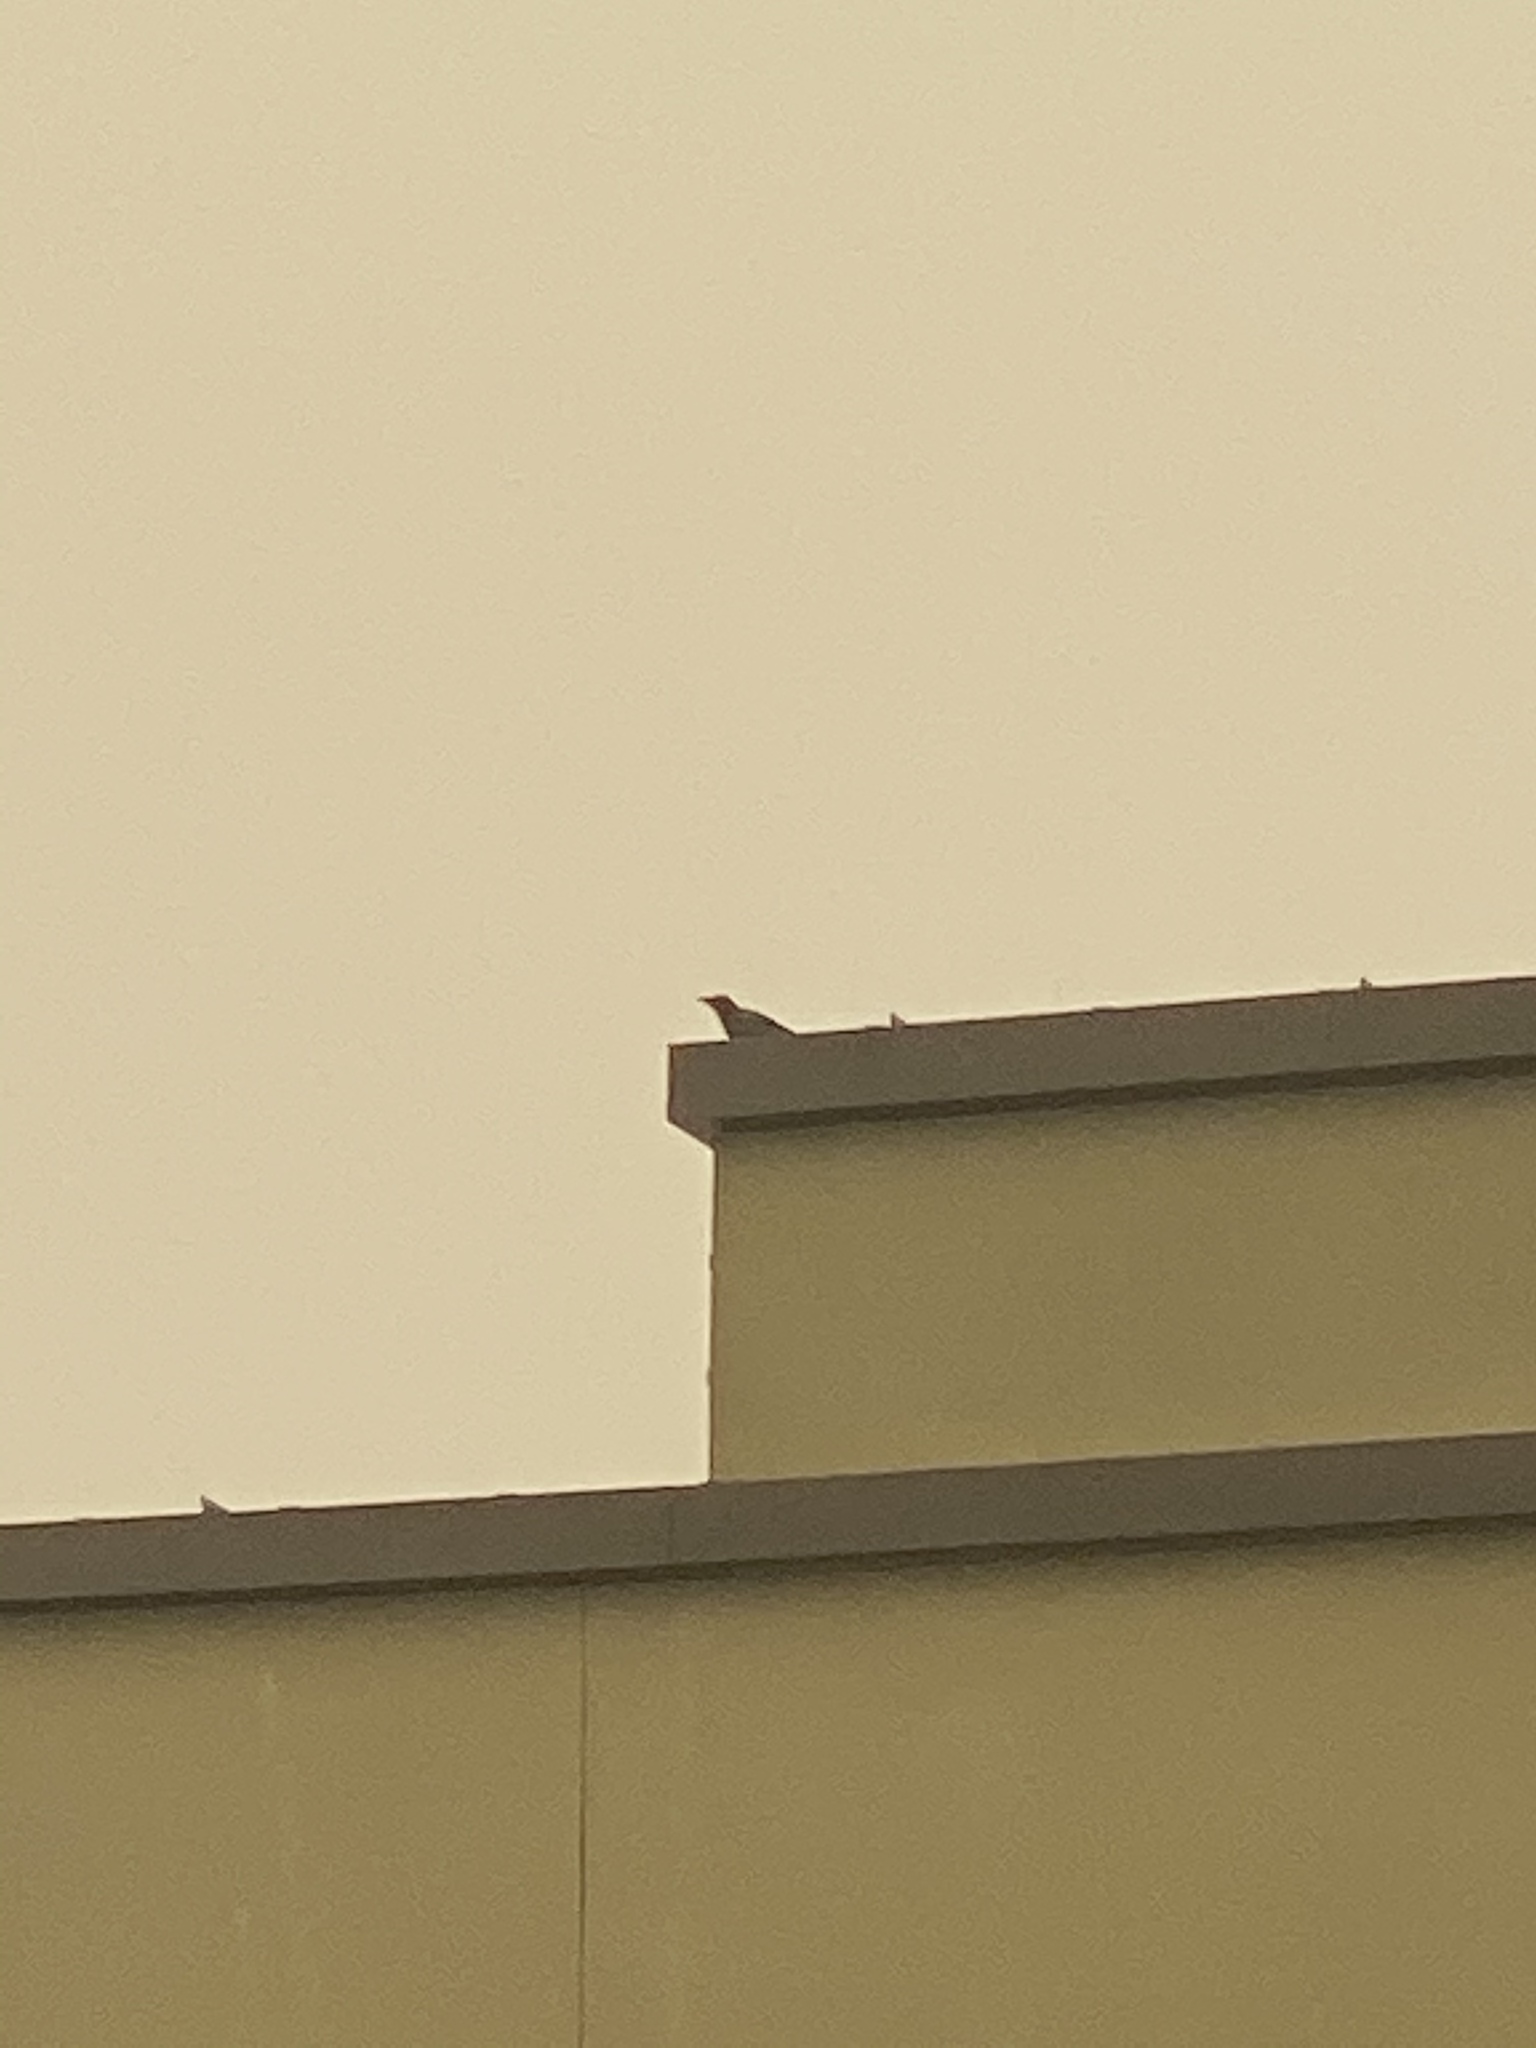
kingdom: Animalia
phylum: Chordata
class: Aves
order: Passeriformes
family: Corvidae
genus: Corvus
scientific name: Corvus brachyrhynchos
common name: American crow
